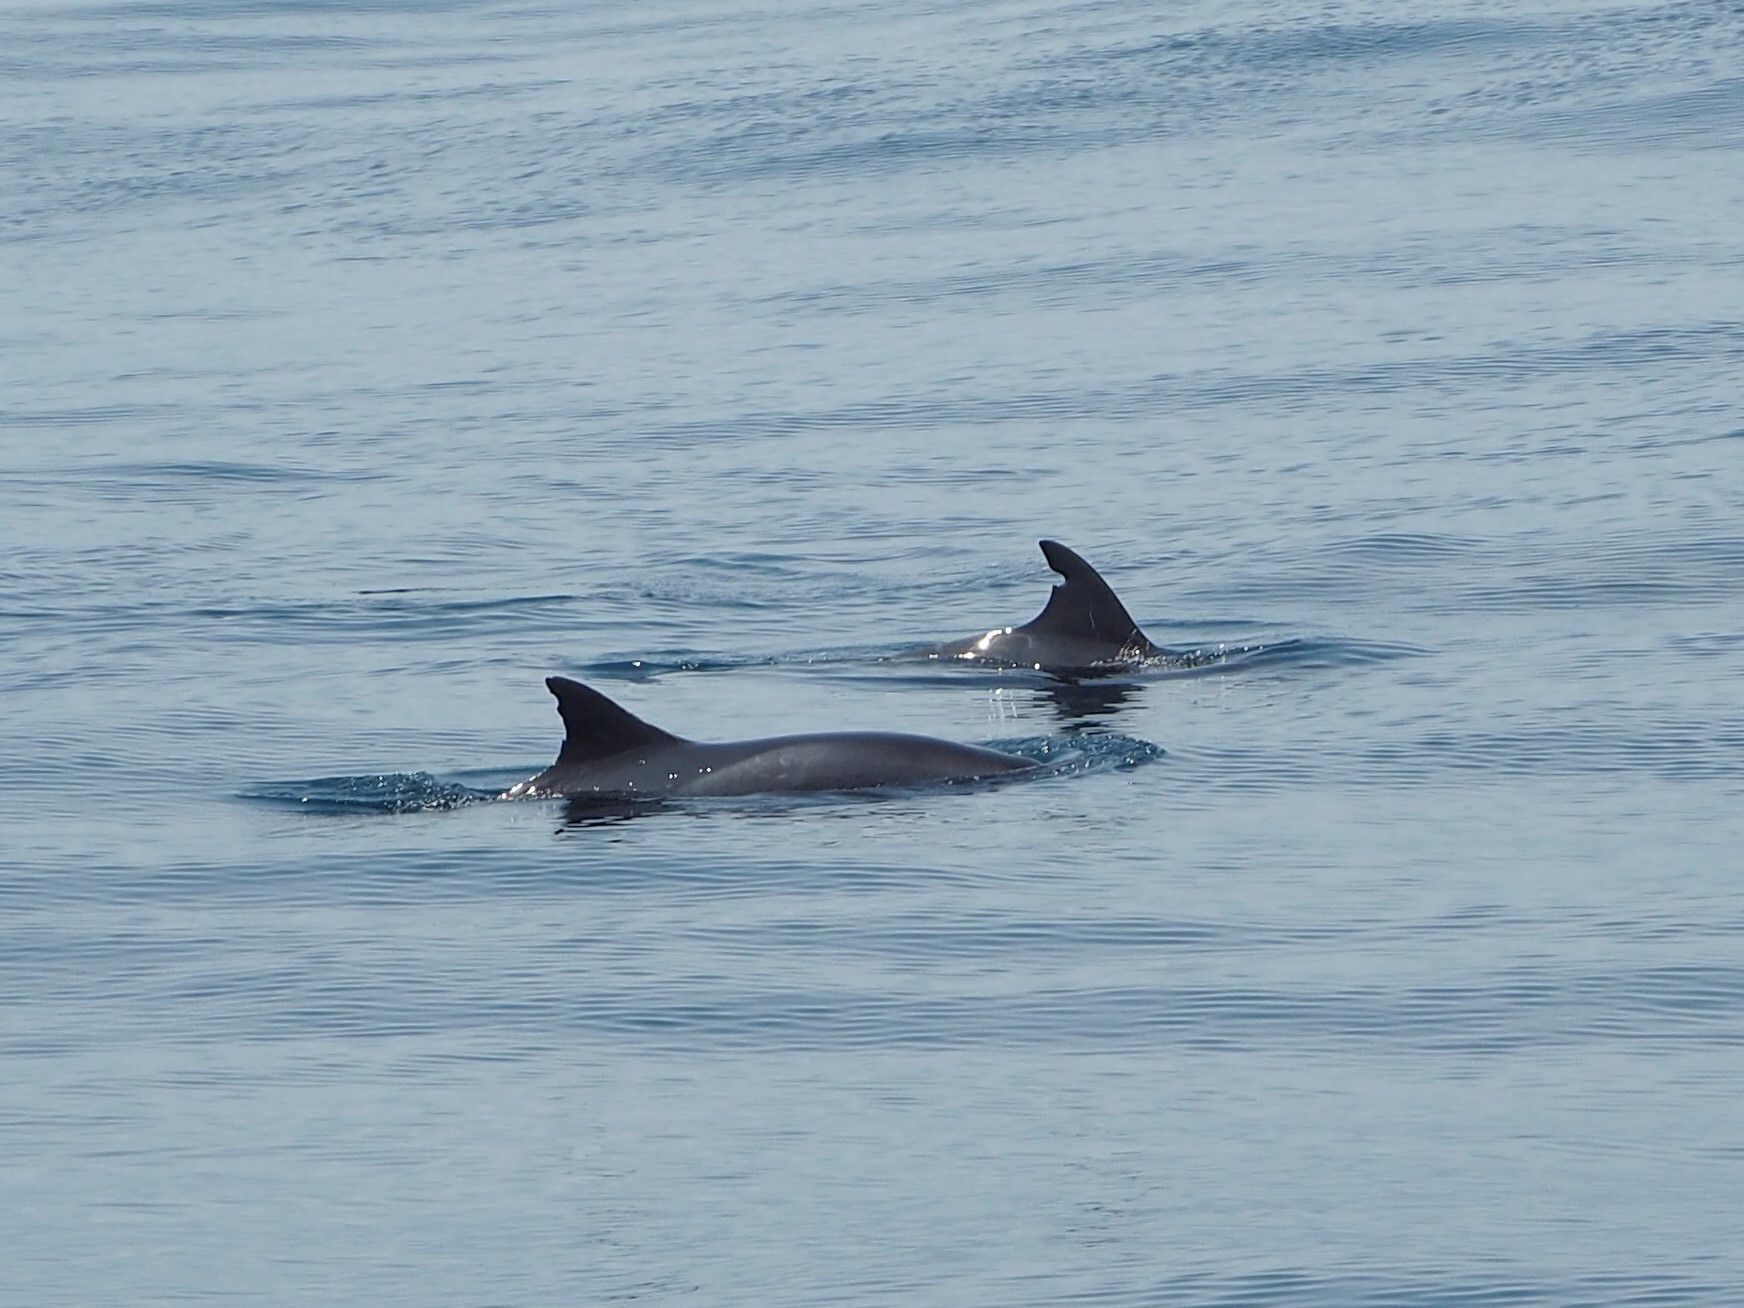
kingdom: Animalia
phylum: Chordata
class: Mammalia
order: Cetacea
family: Delphinidae
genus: Feresa
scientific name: Feresa attenuata
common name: Pygmy killer whale
